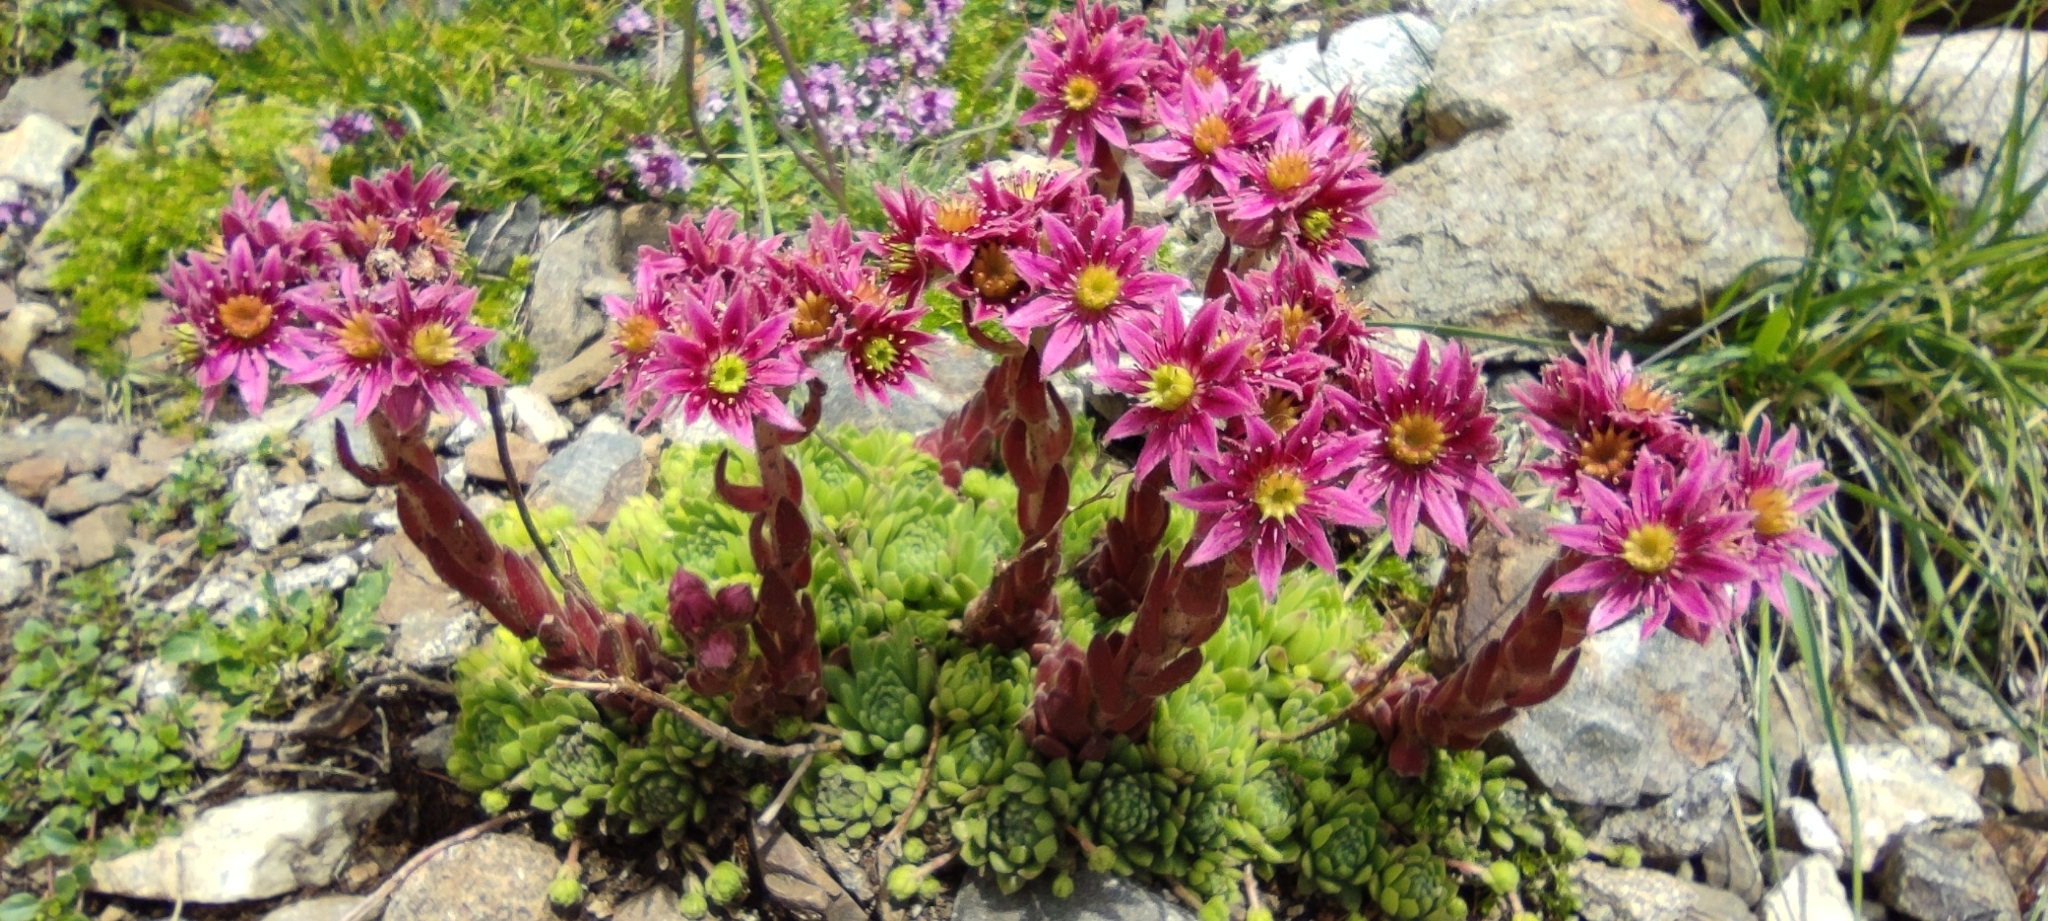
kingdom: Plantae
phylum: Tracheophyta
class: Magnoliopsida
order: Saxifragales
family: Crassulaceae
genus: Sempervivum
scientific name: Sempervivum montanum
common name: Mountain house-leek
